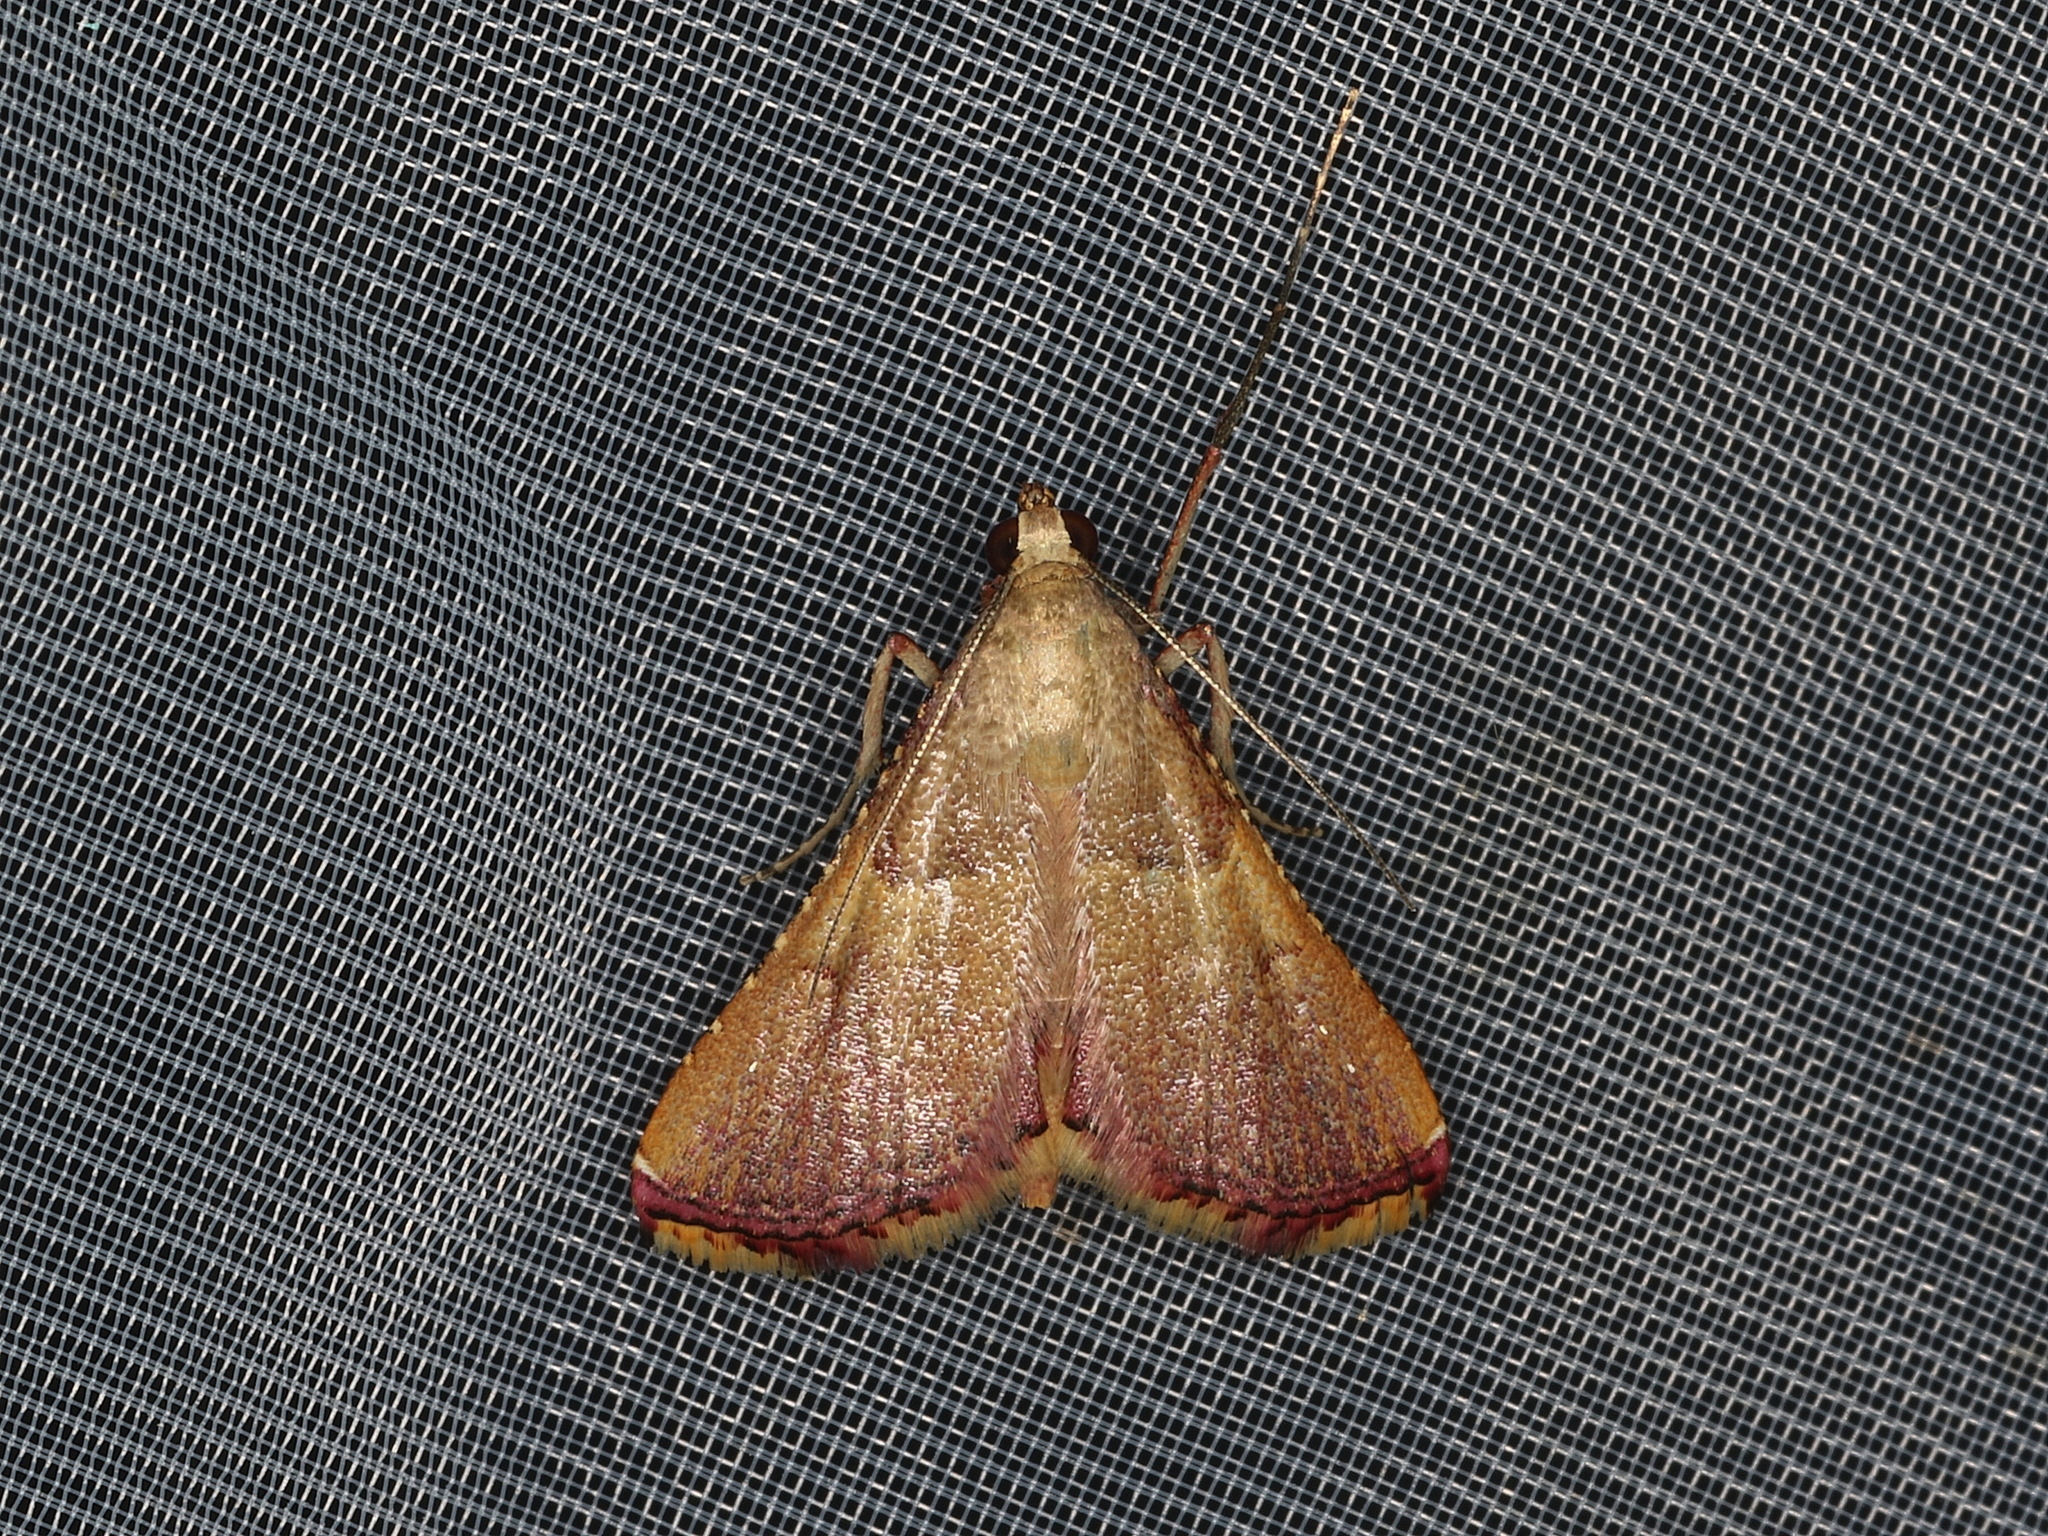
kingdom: Animalia
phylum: Arthropoda
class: Insecta
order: Lepidoptera
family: Pyralidae
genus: Endotricha
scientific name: Endotricha mesenterialis
